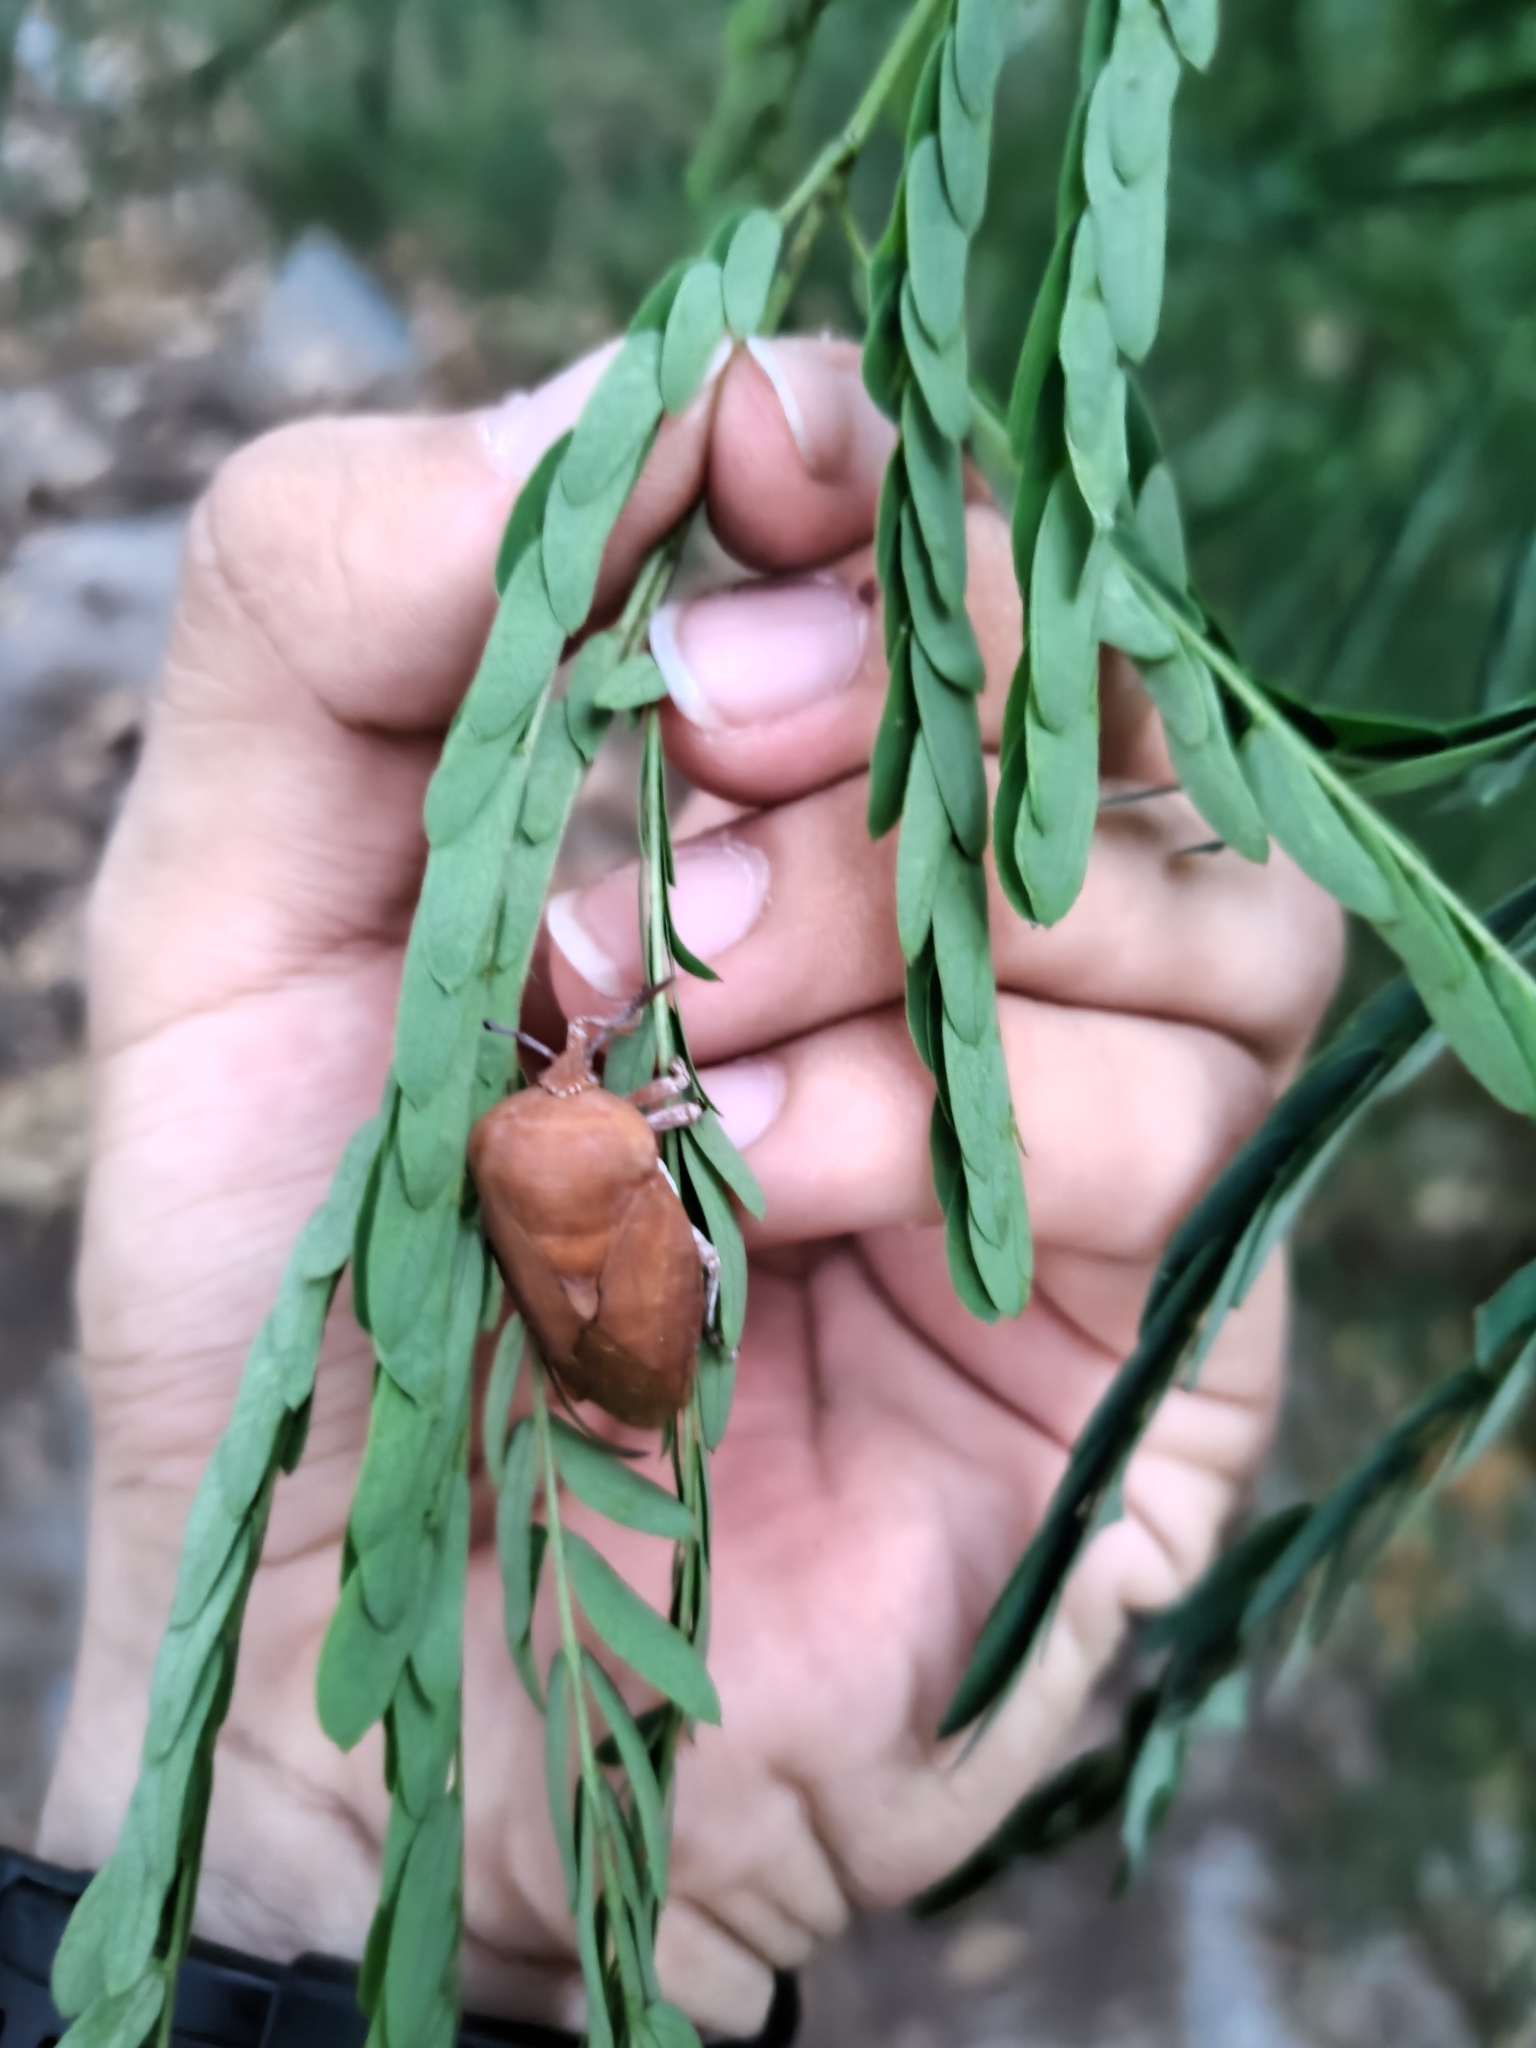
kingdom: Animalia
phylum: Arthropoda
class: Insecta
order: Hemiptera
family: Tessaratomidae
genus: Tessaratoma
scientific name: Tessaratoma papillosa
